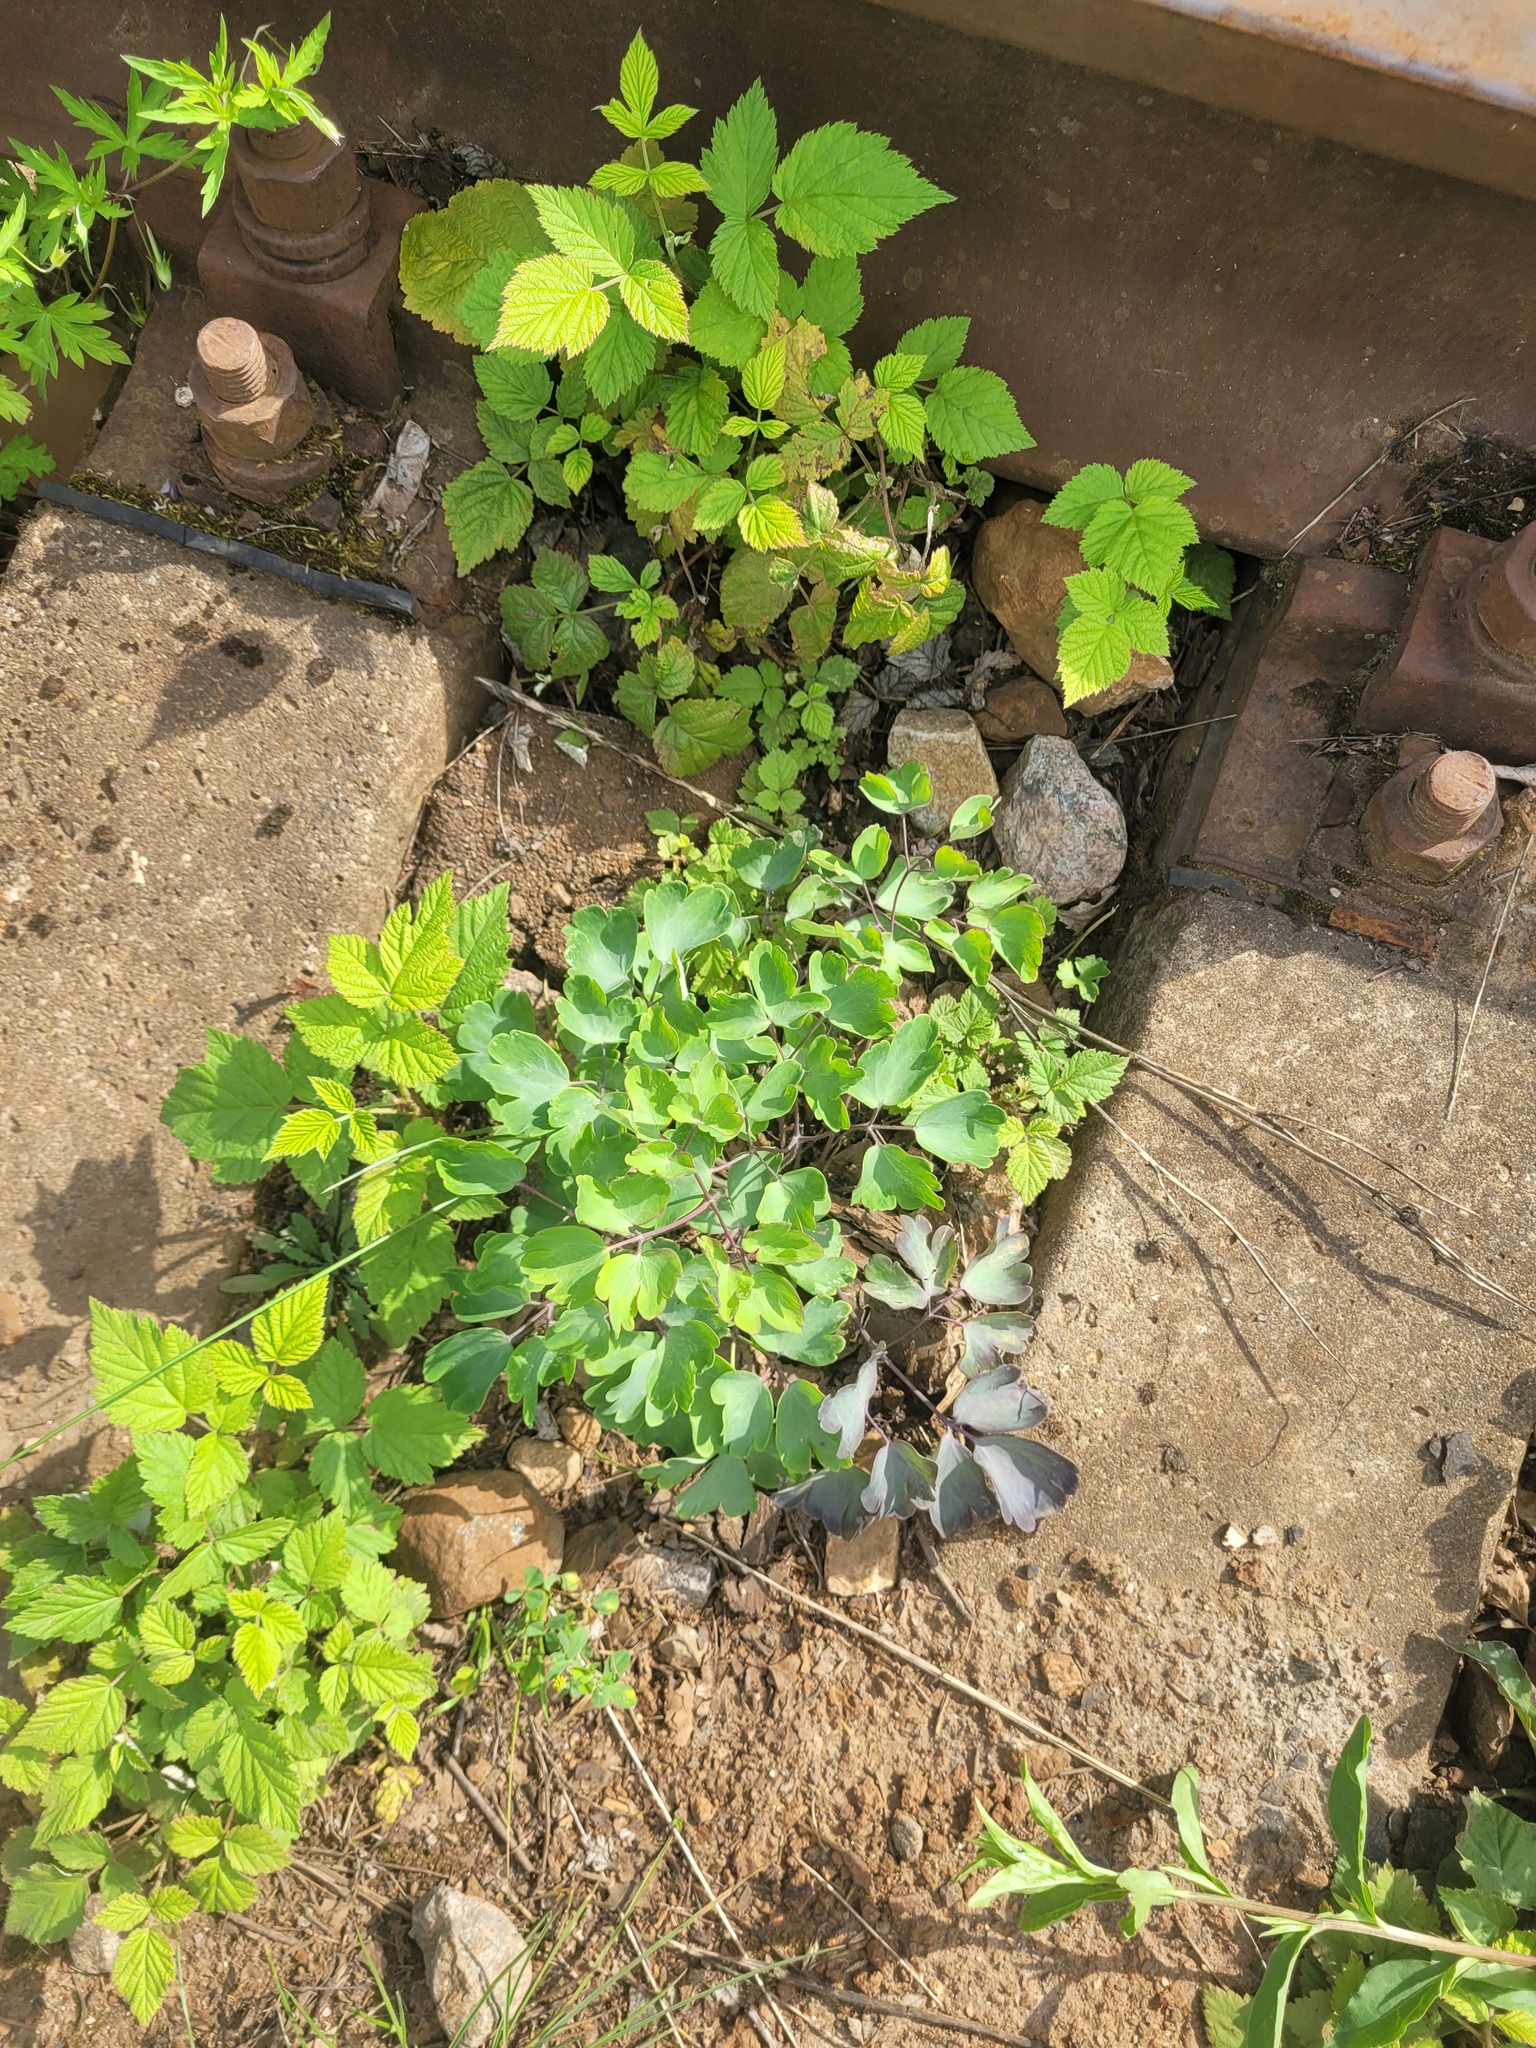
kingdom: Plantae
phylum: Tracheophyta
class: Magnoliopsida
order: Ranunculales
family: Ranunculaceae
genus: Aquilegia
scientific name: Aquilegia vulgaris
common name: Columbine
